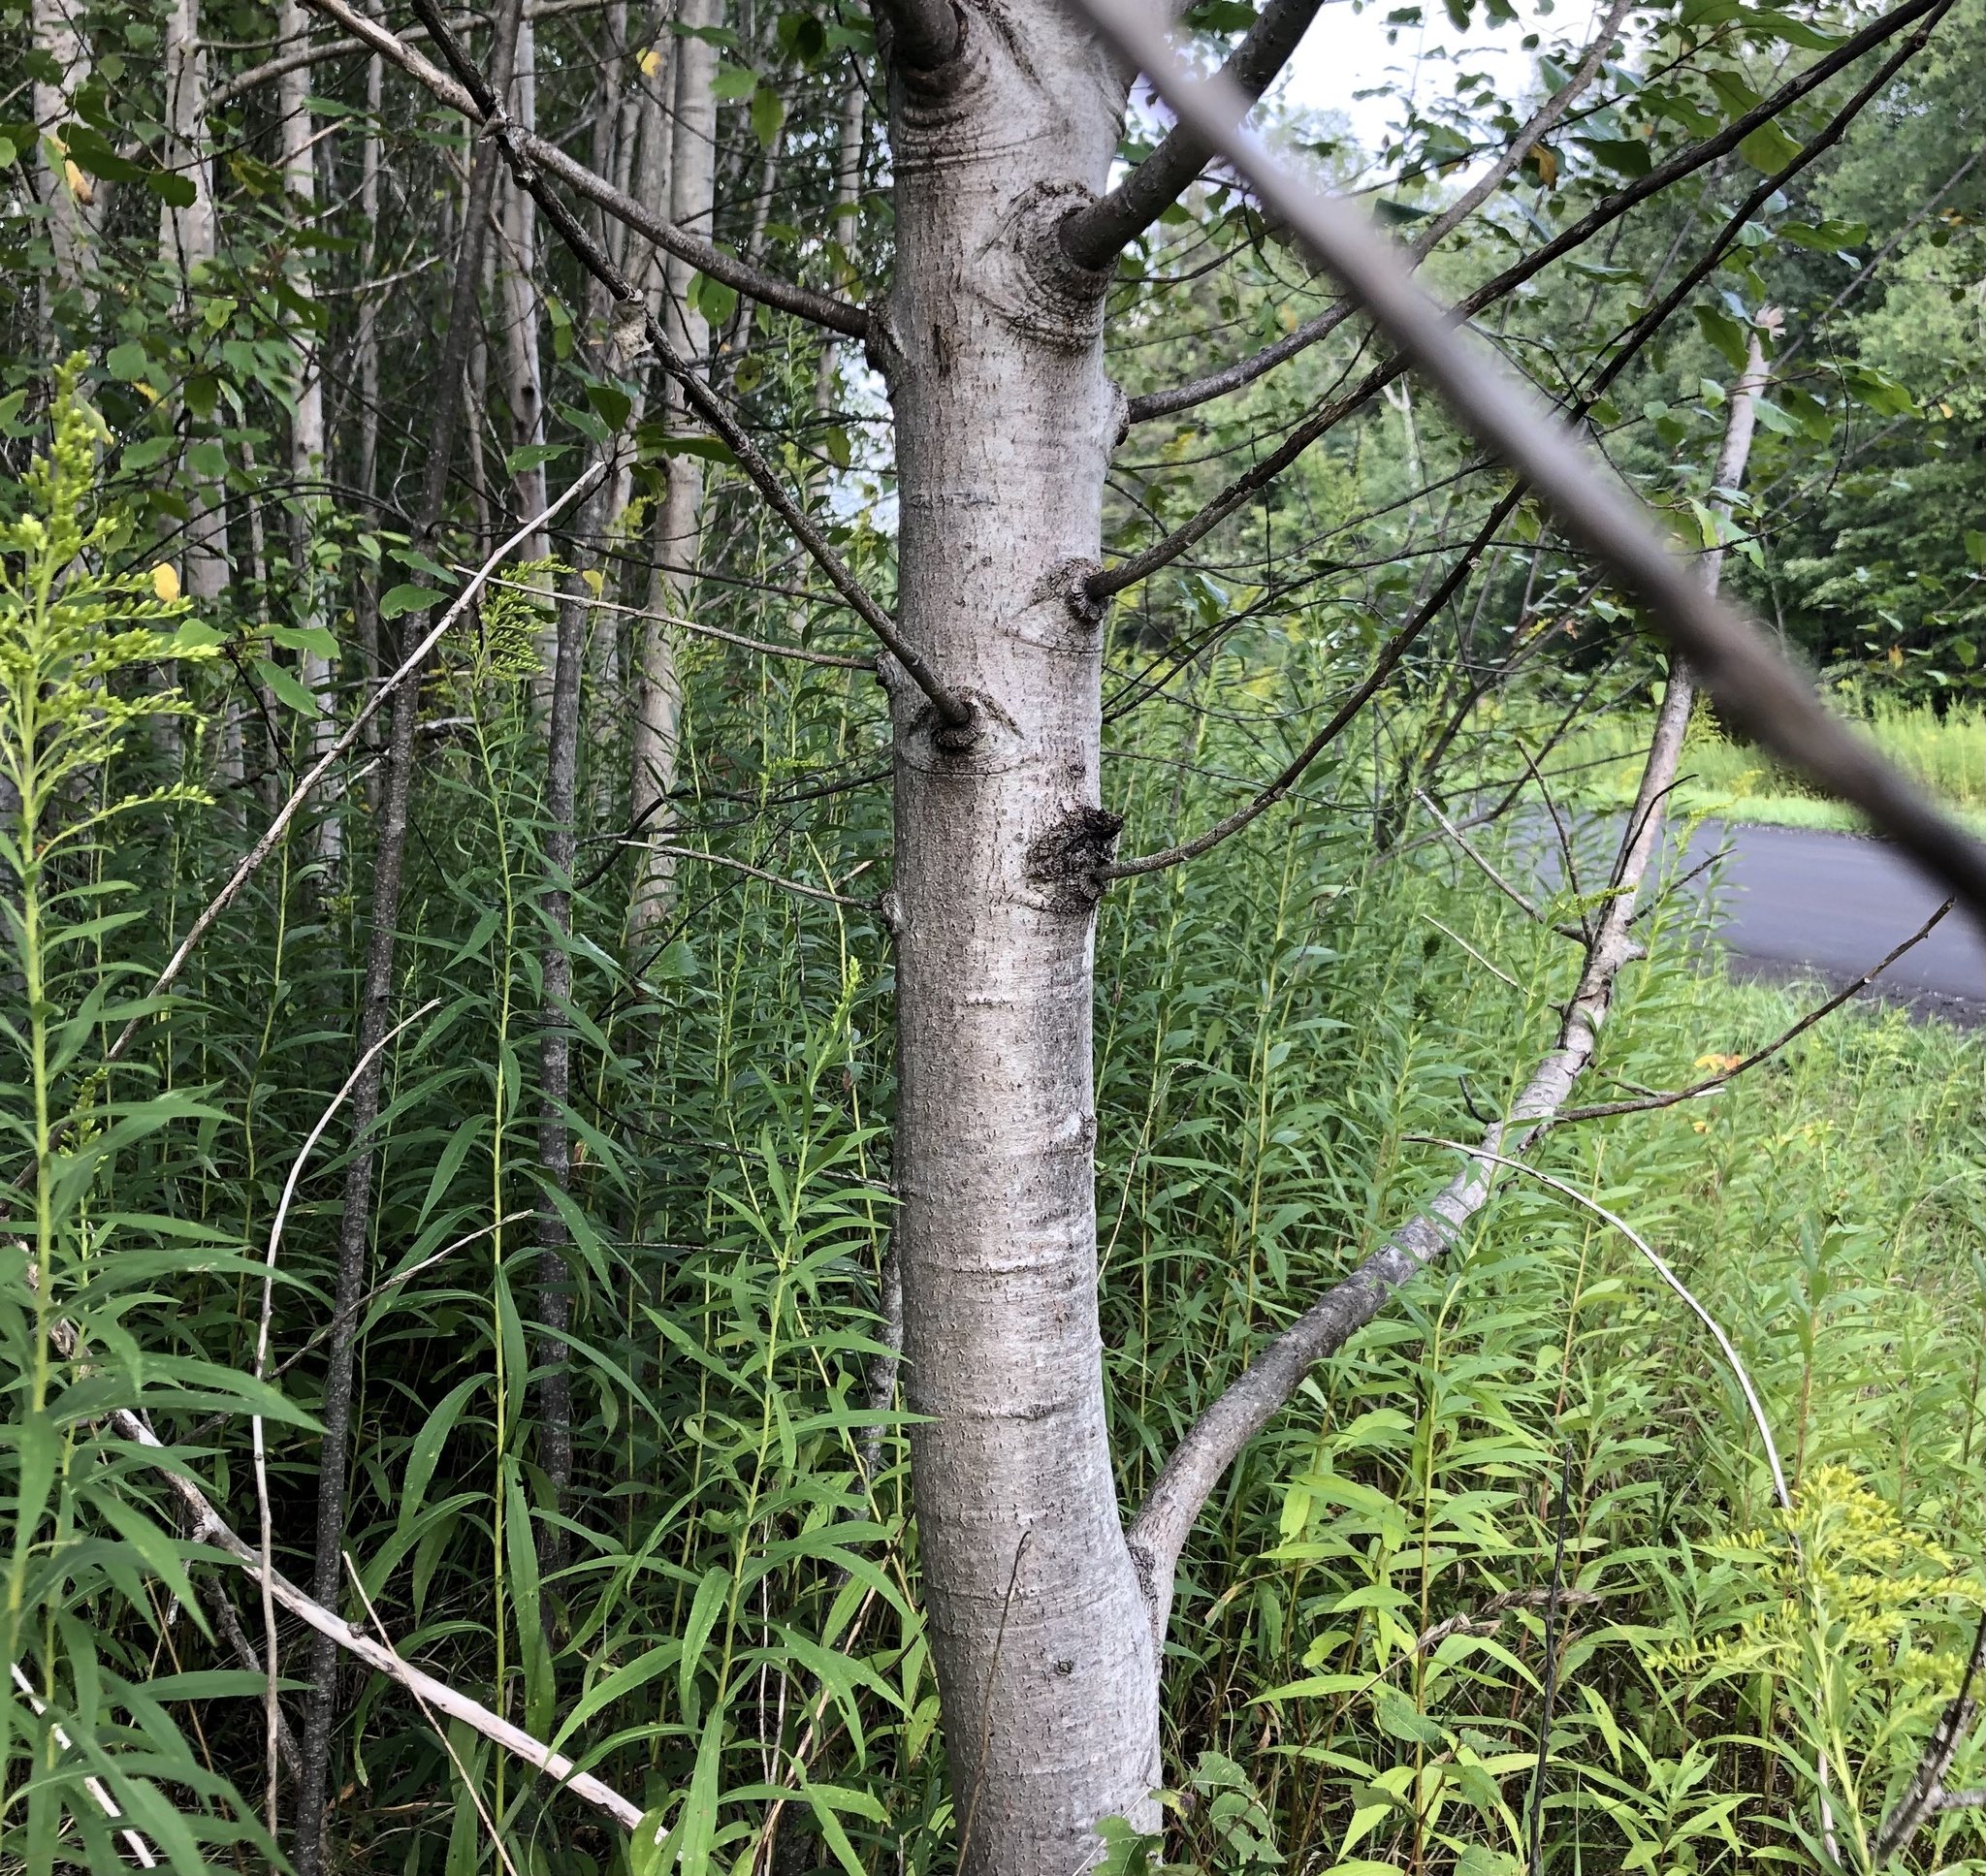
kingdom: Plantae
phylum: Tracheophyta
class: Magnoliopsida
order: Malpighiales
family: Salicaceae
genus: Populus
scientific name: Populus tremuloides
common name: Quaking aspen
